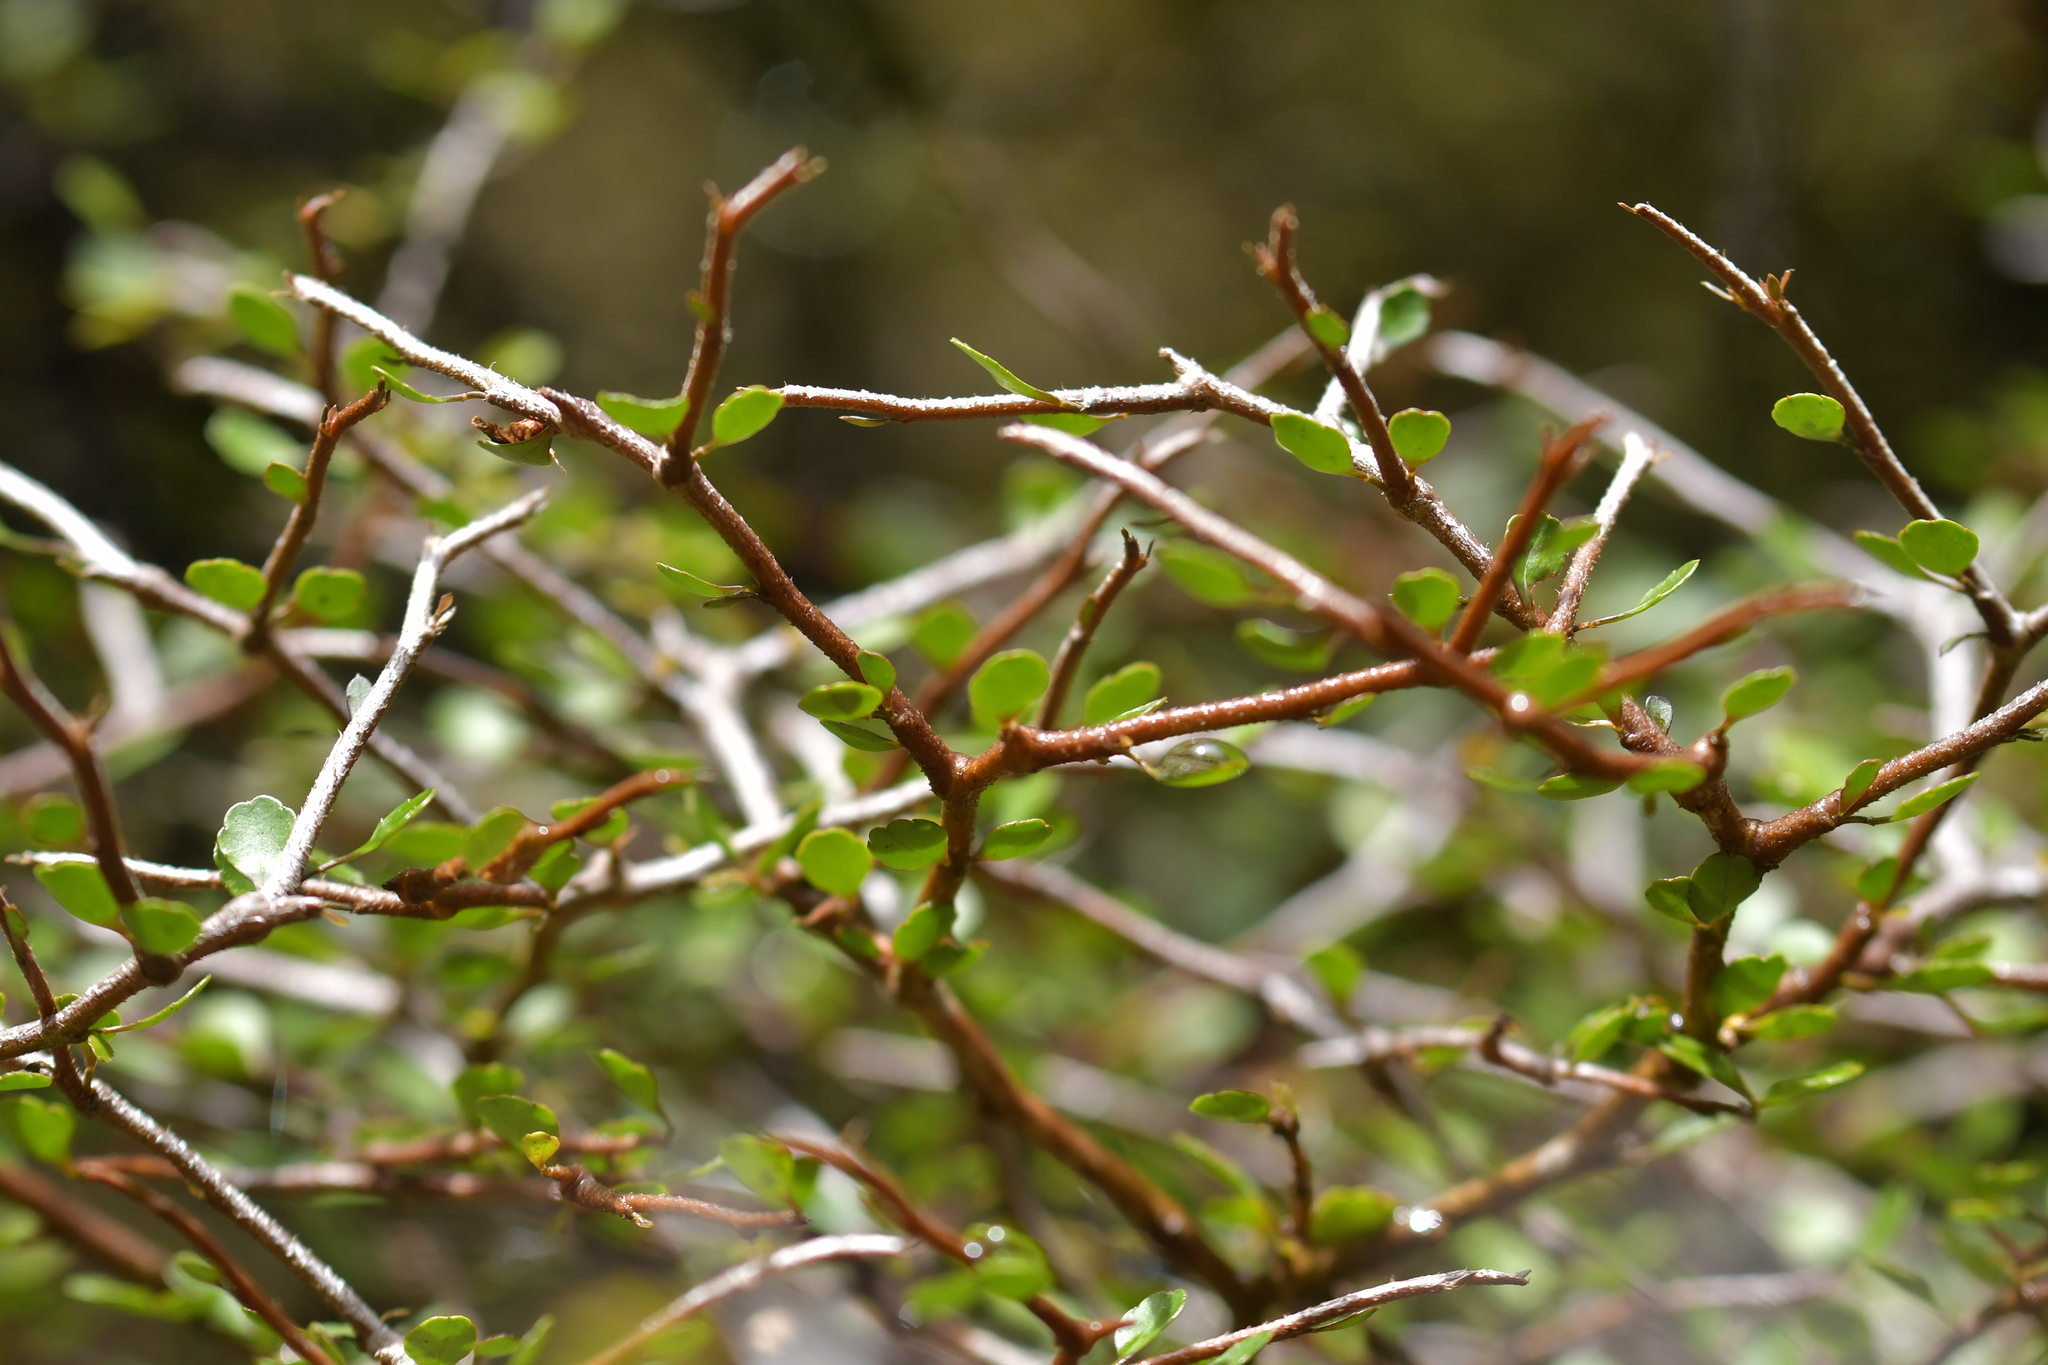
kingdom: Plantae
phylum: Tracheophyta
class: Magnoliopsida
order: Apiales
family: Araliaceae
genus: Raukaua
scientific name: Raukaua anomalus
